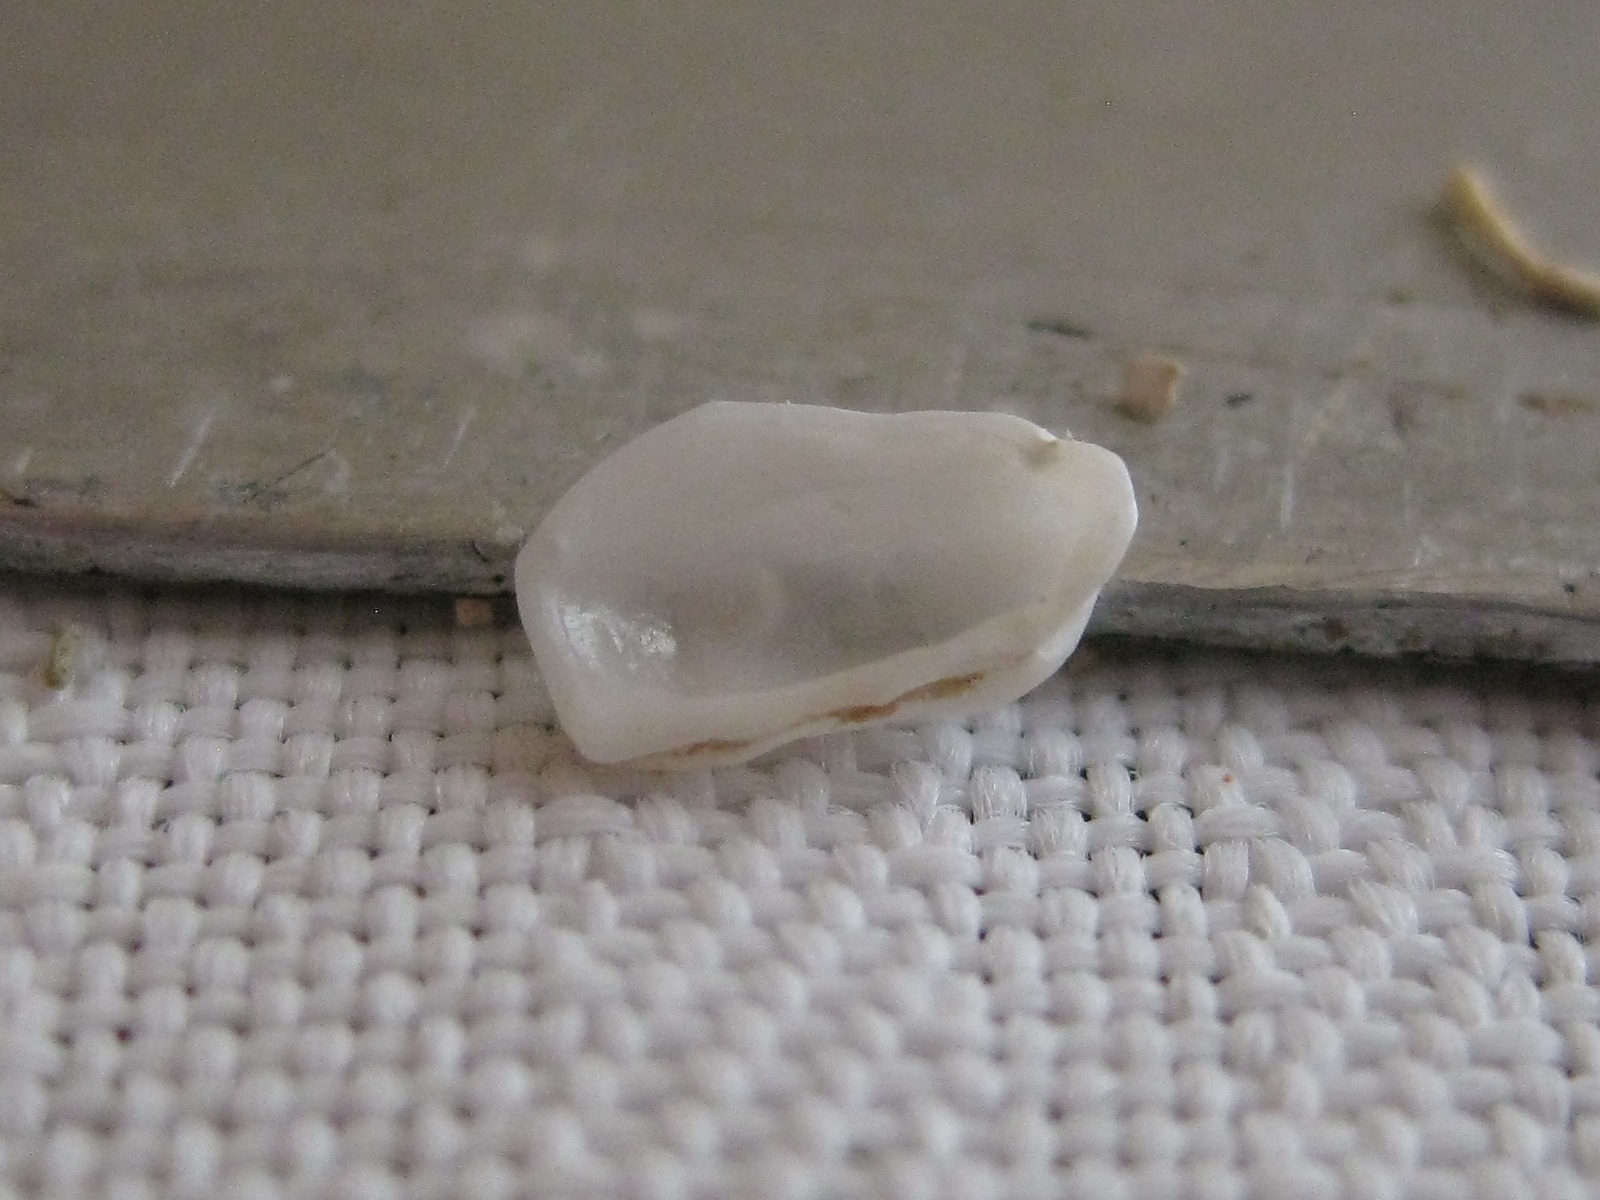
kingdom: Animalia
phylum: Mollusca
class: Bivalvia
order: Adapedonta
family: Hiatellidae
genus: Hiatella
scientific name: Hiatella arctica
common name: Arctic hiatella
